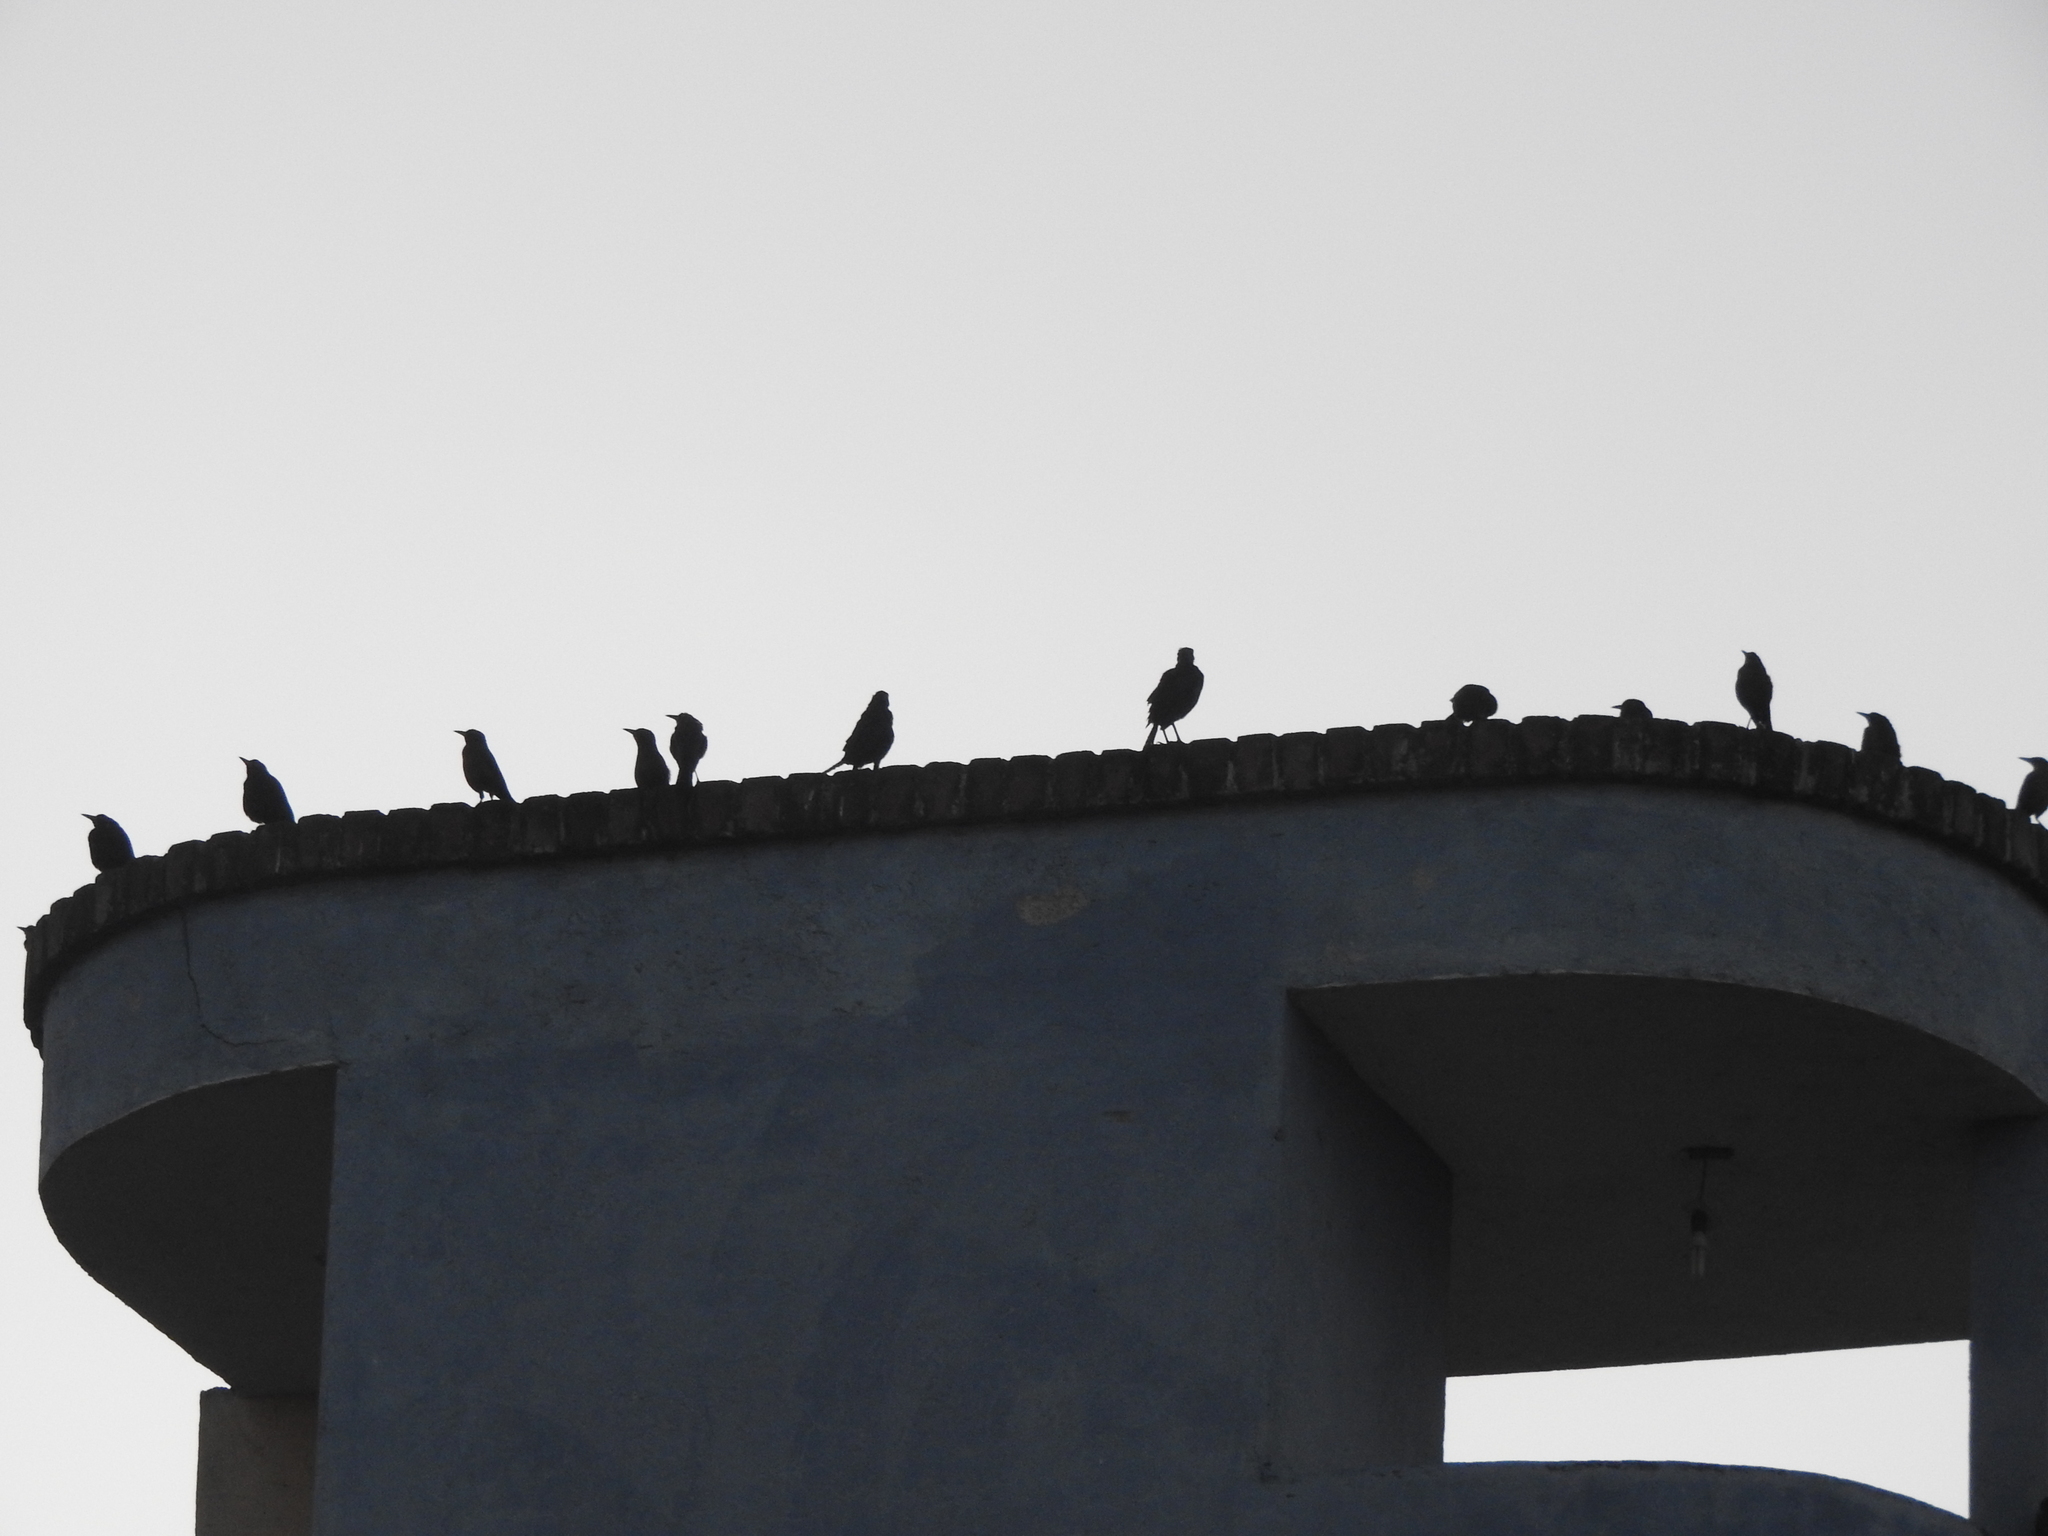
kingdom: Animalia
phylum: Chordata
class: Aves
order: Passeriformes
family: Icteridae
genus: Quiscalus
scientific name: Quiscalus mexicanus
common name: Great-tailed grackle
